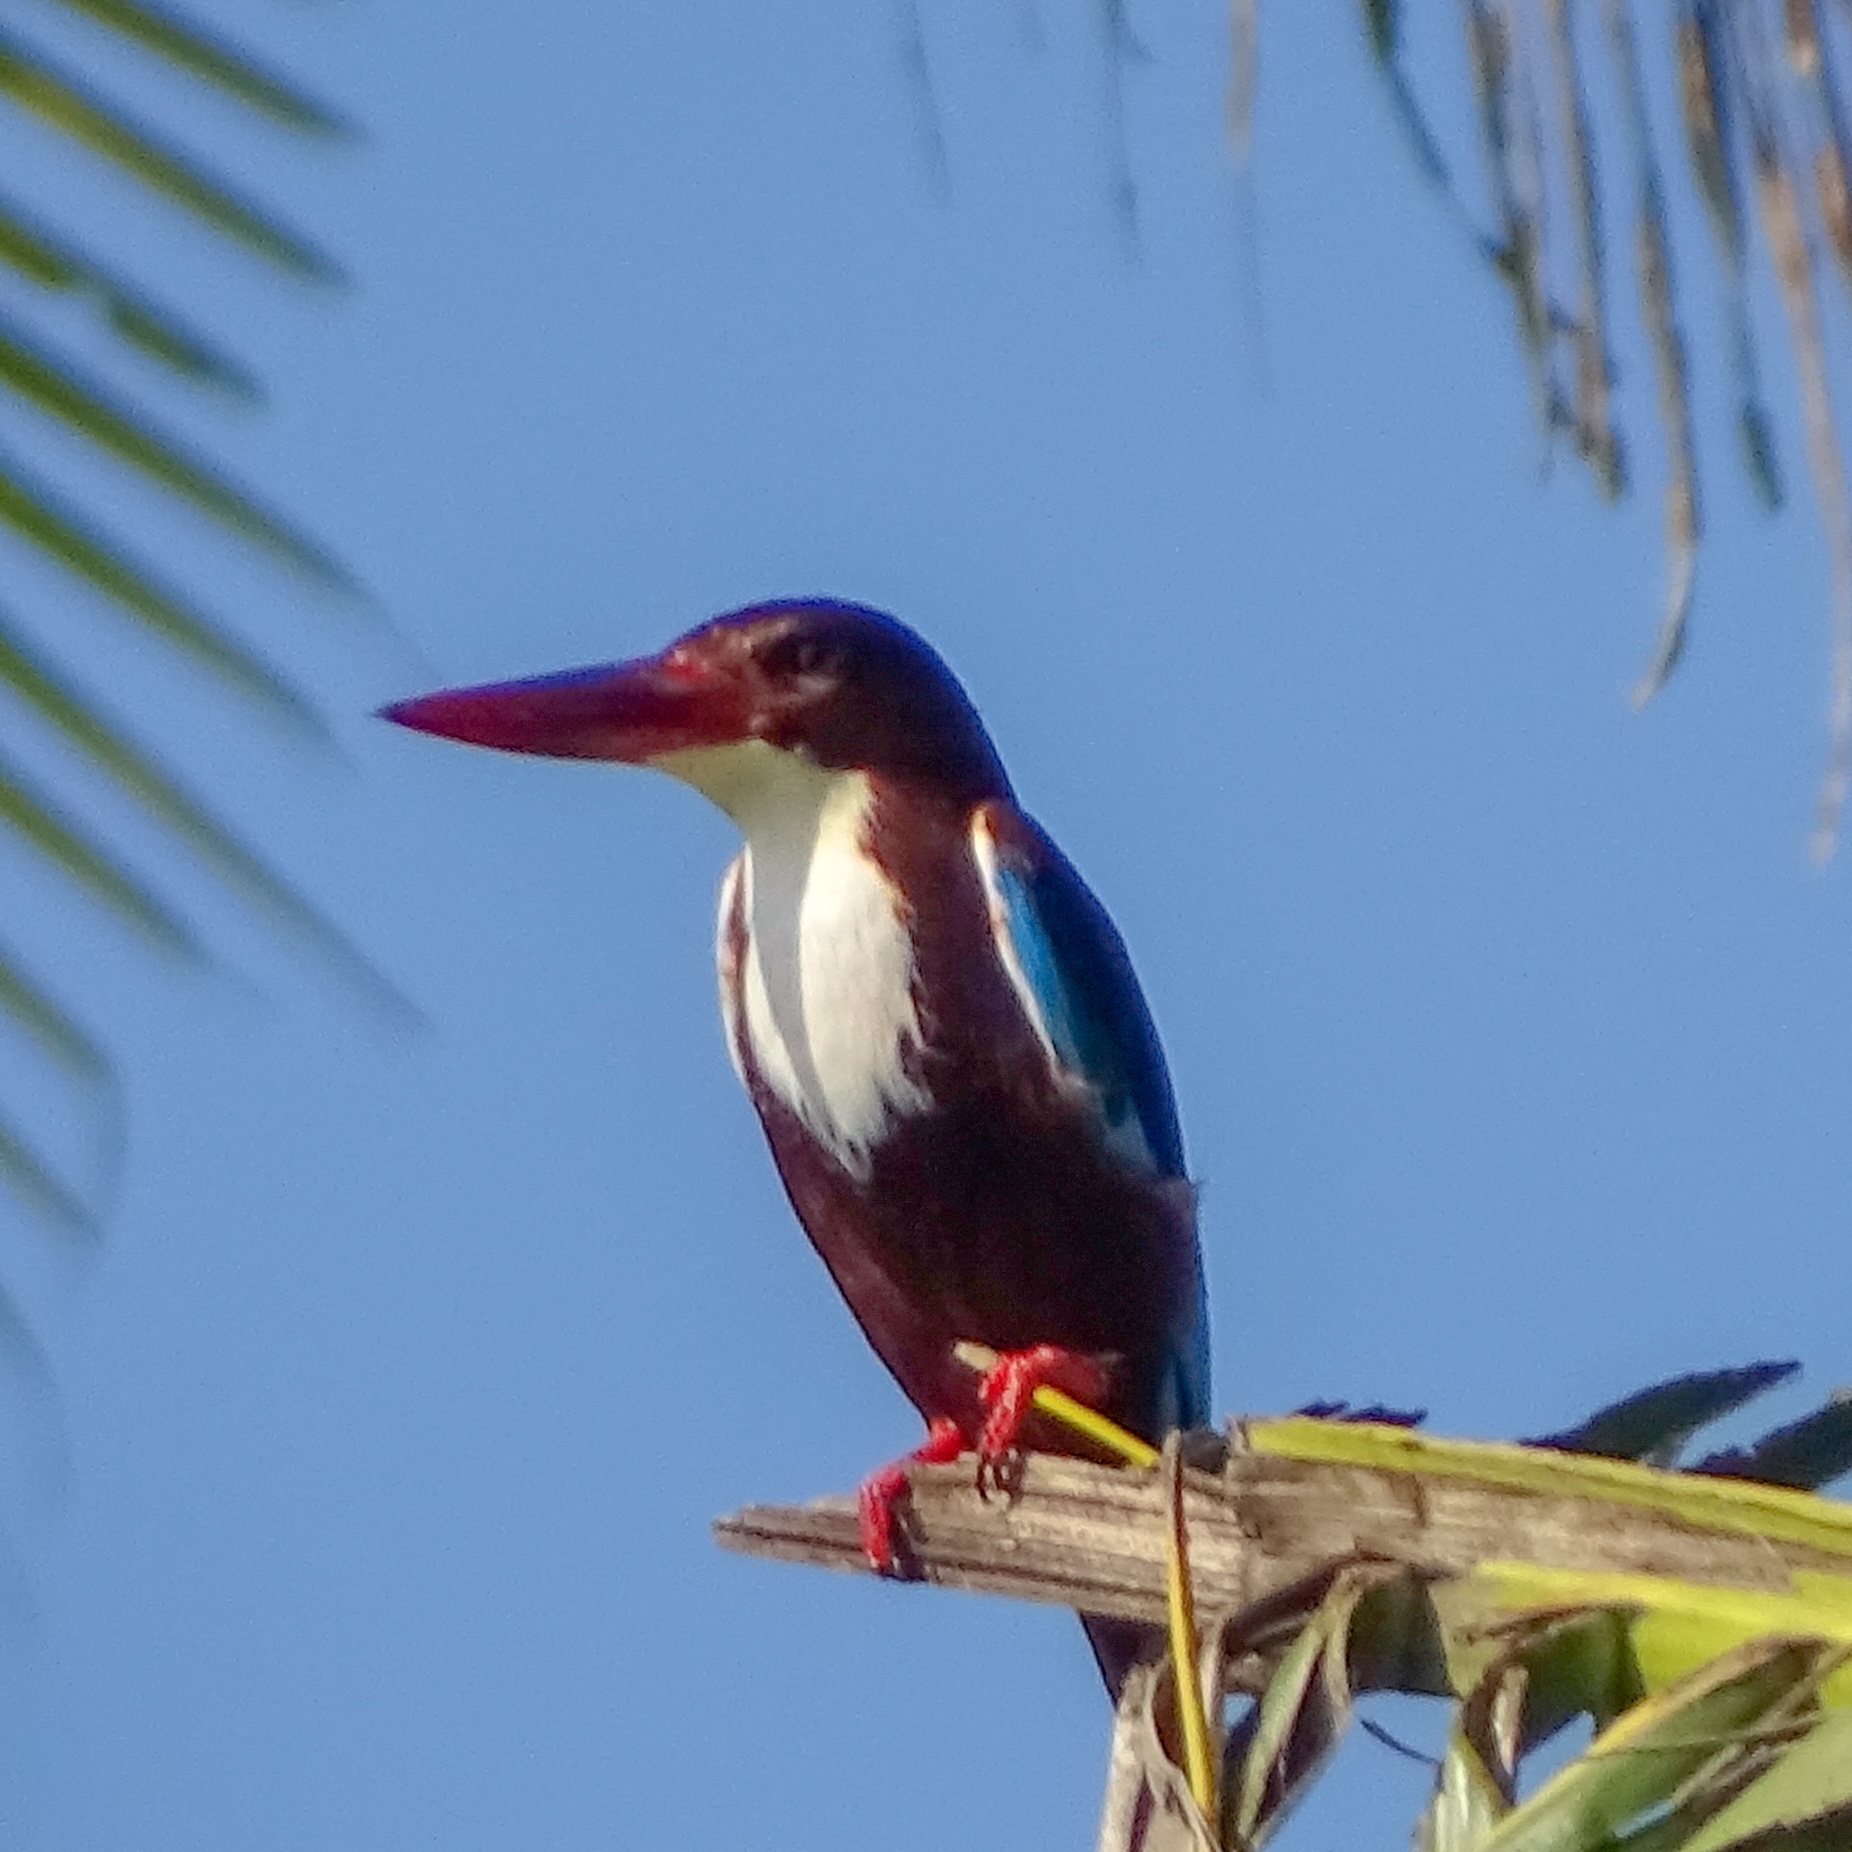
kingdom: Animalia
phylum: Chordata
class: Aves
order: Coraciiformes
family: Alcedinidae
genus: Halcyon
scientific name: Halcyon smyrnensis
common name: White-throated kingfisher
